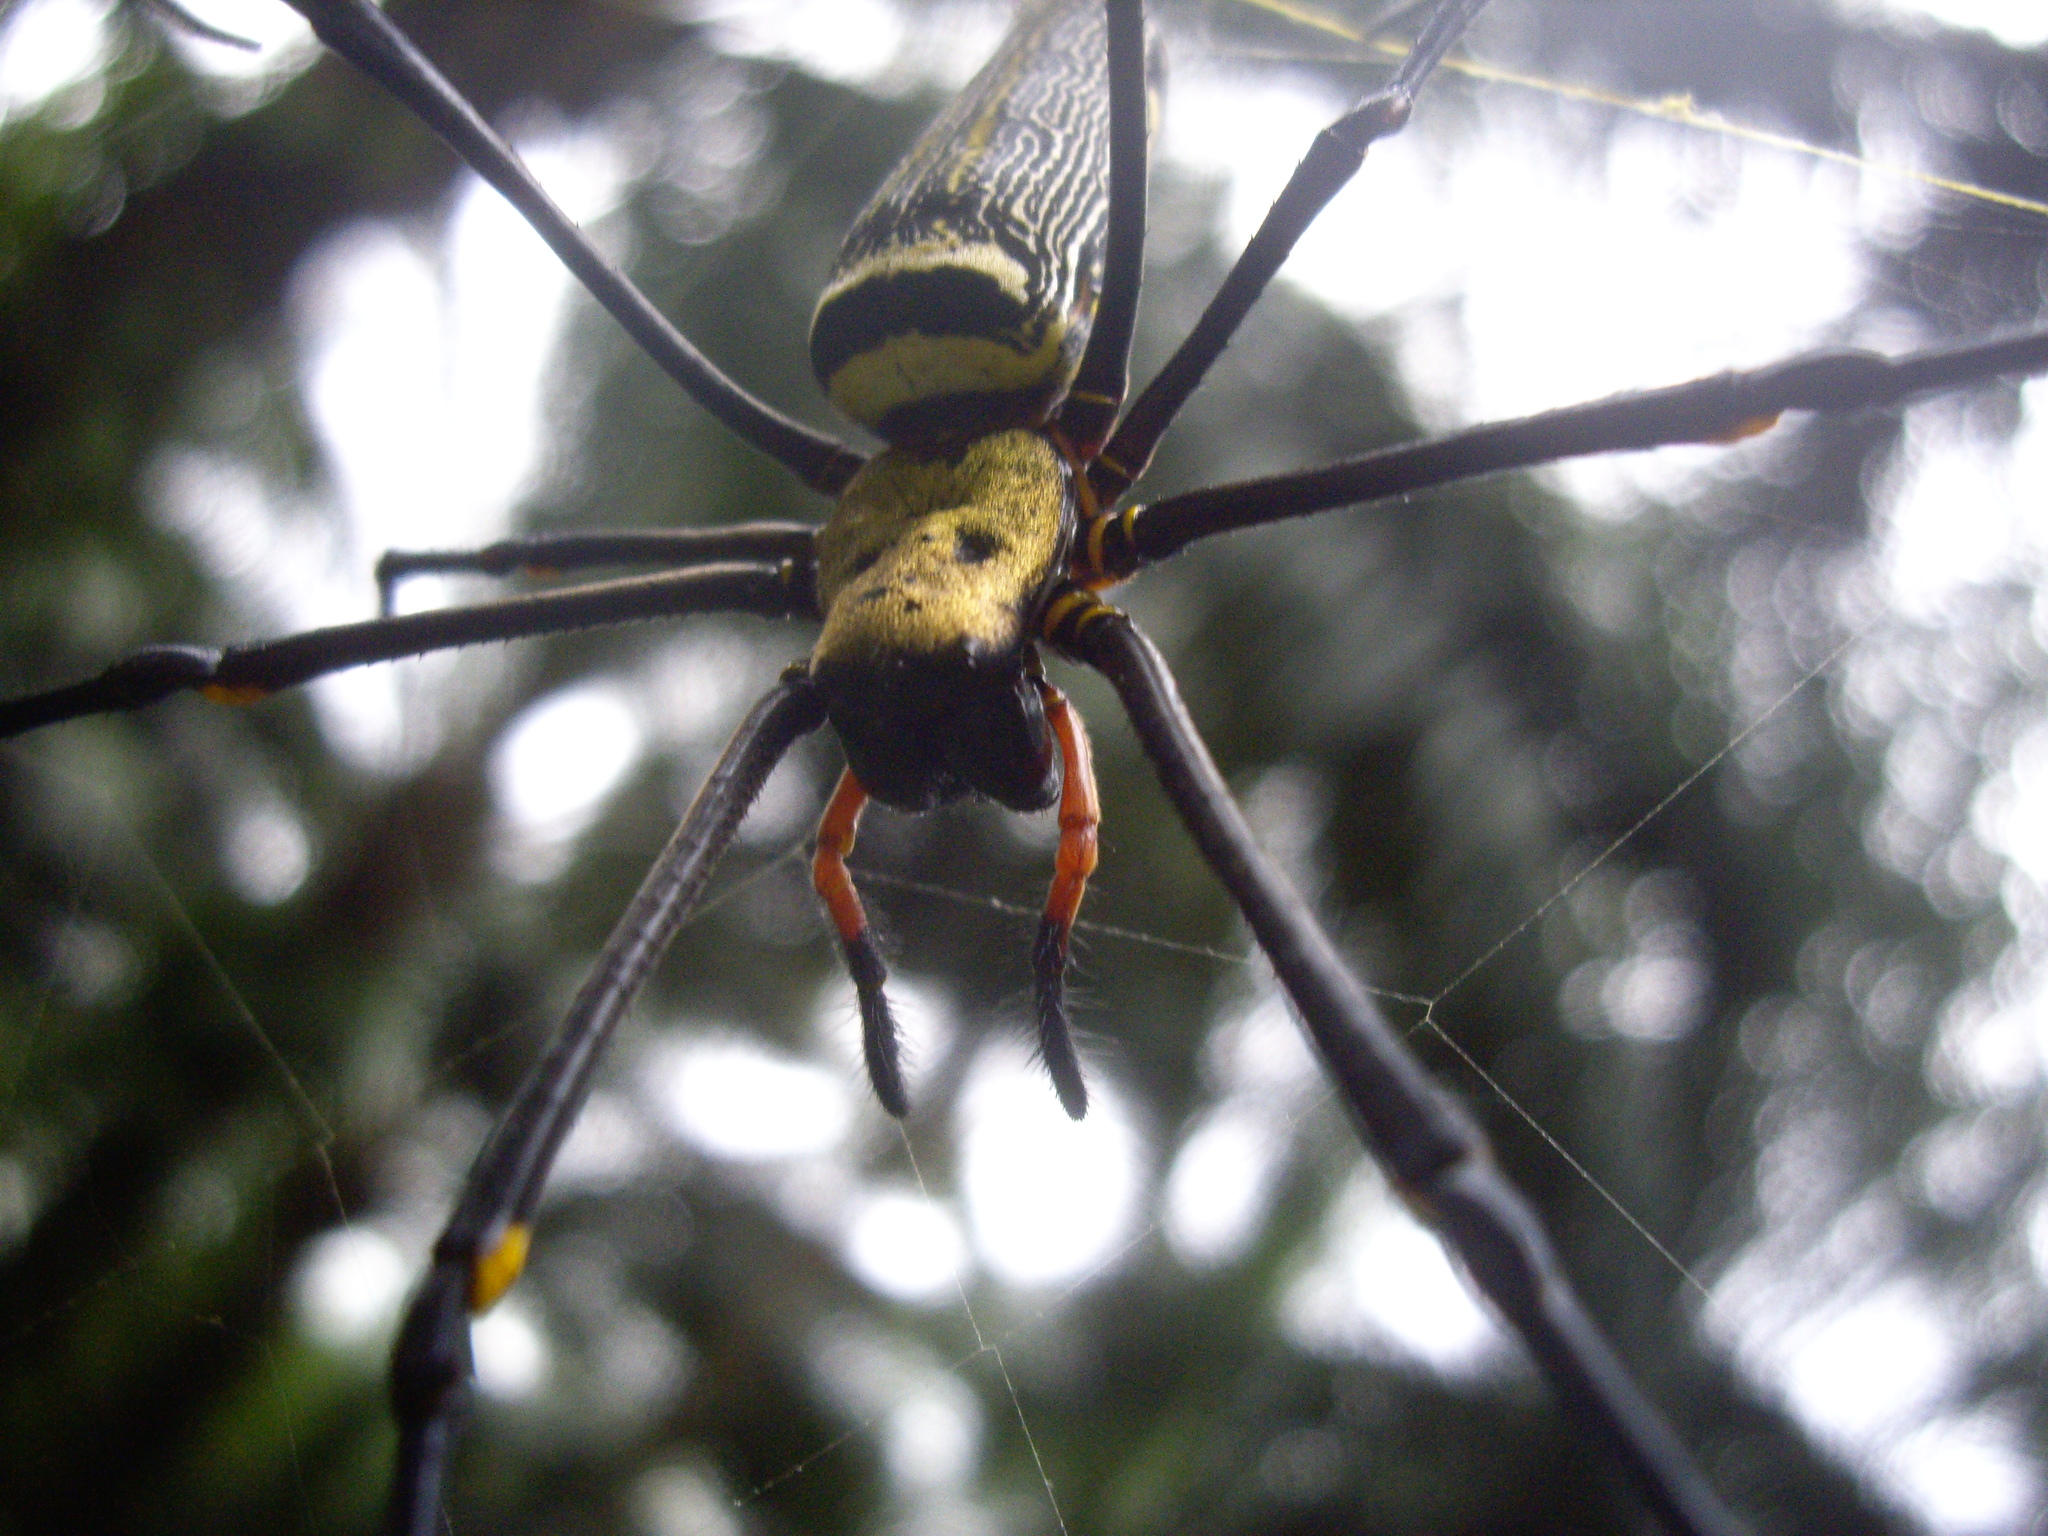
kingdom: Animalia
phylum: Arthropoda
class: Arachnida
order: Araneae
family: Araneidae
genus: Nephila
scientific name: Nephila pilipes
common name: Giant golden orb weaver
